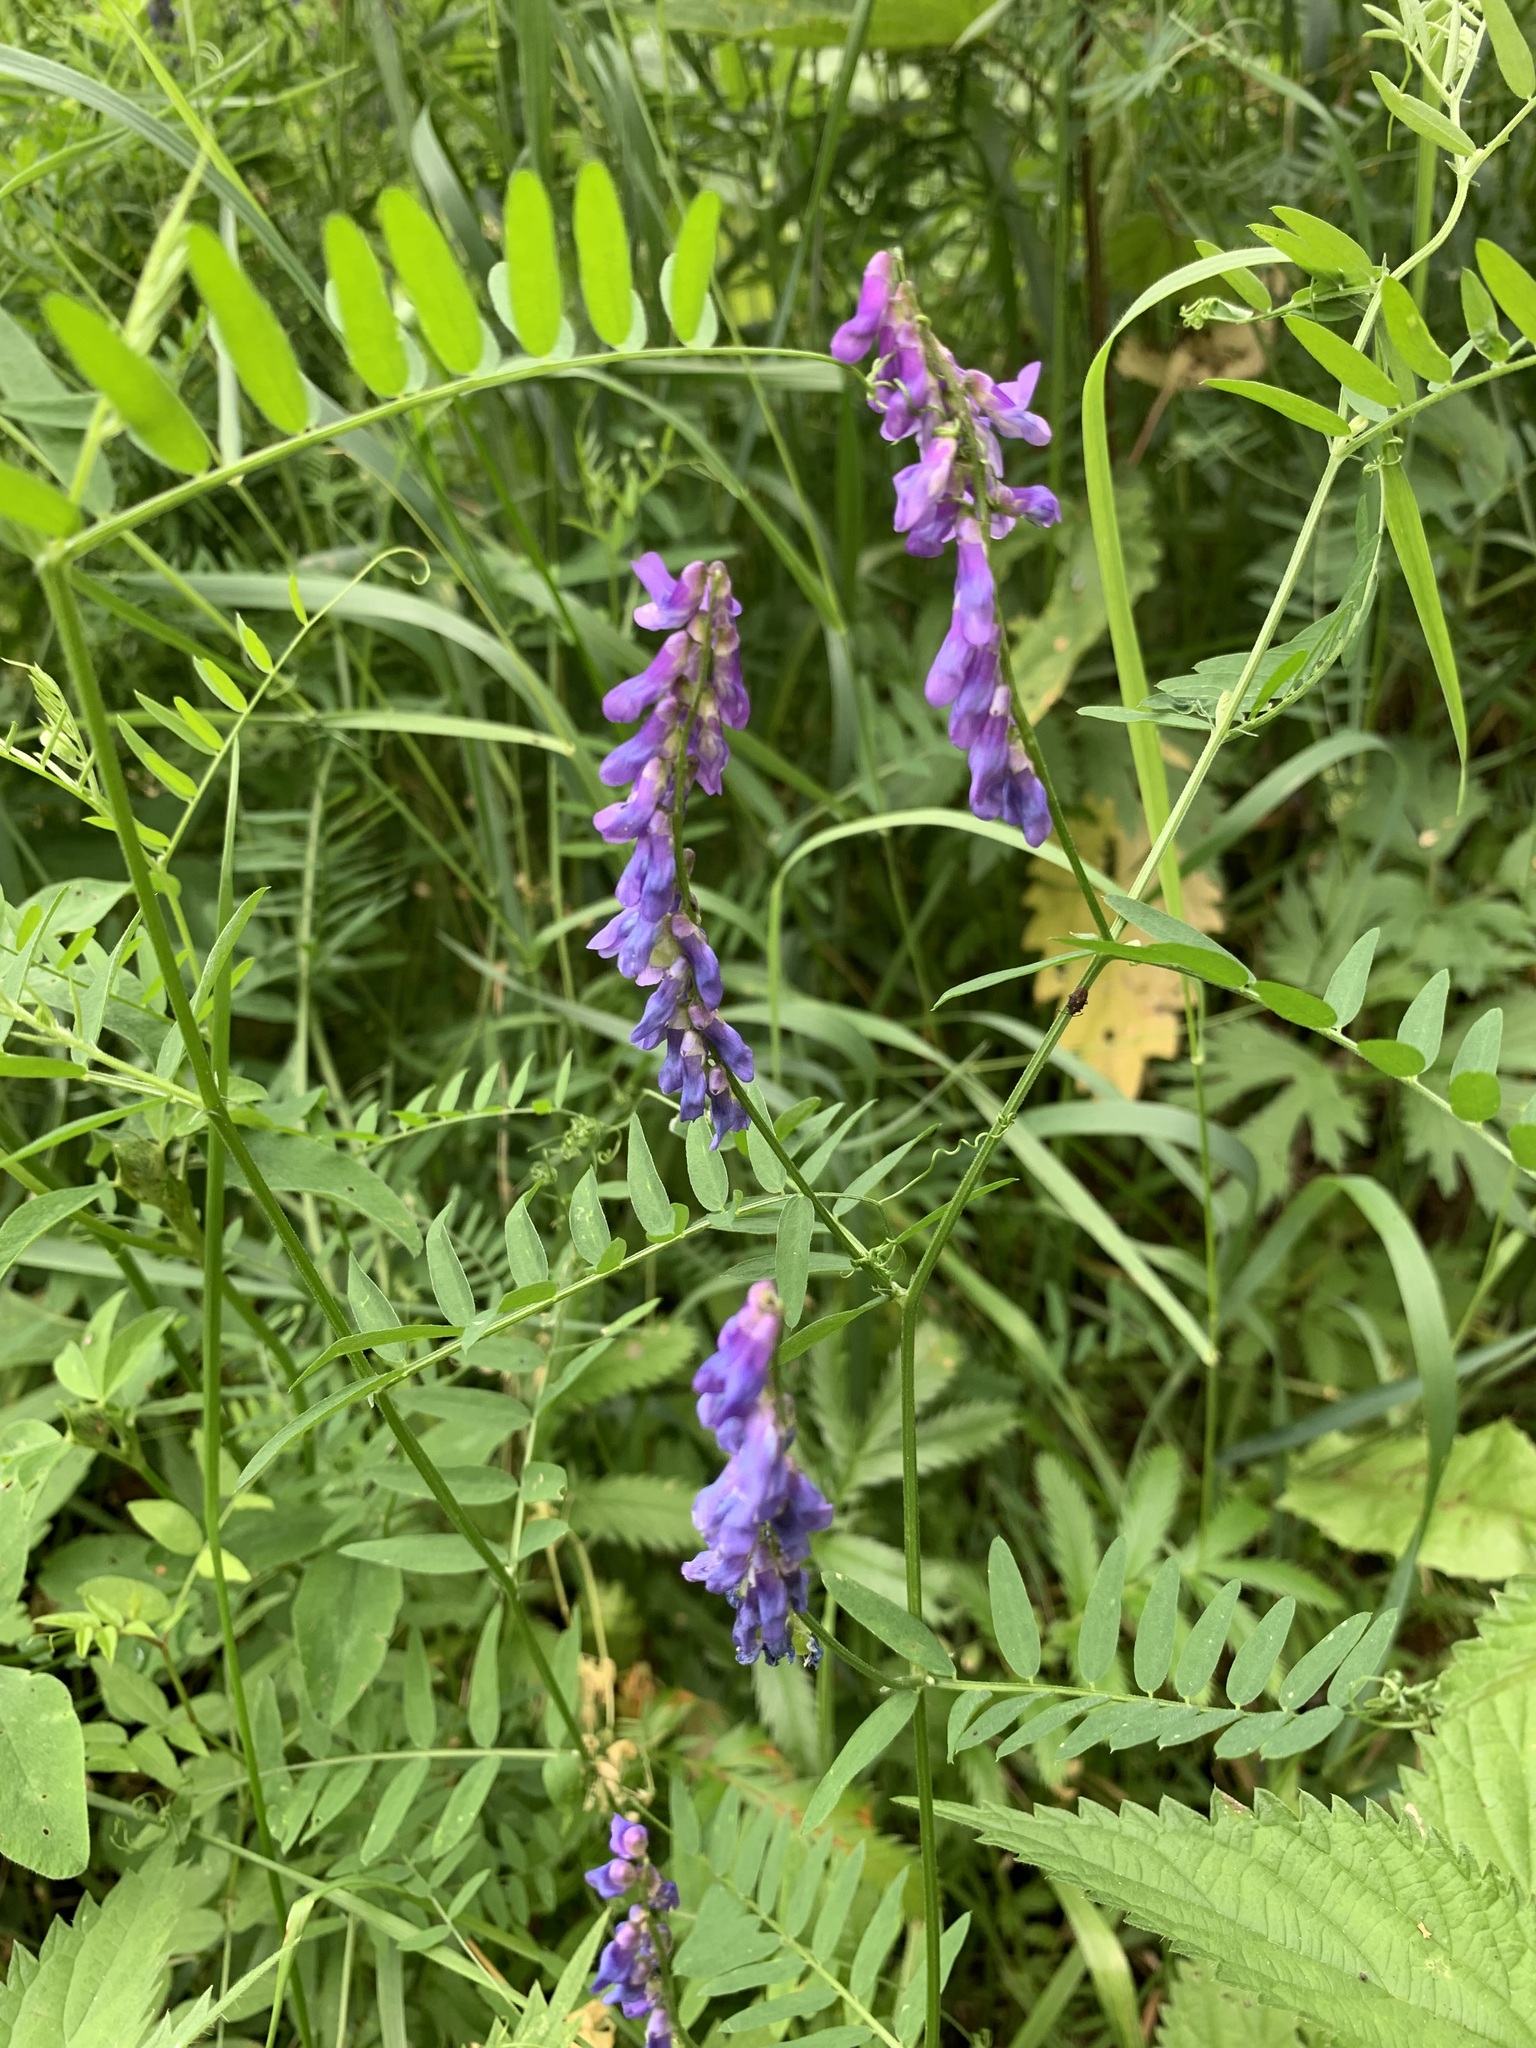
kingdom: Plantae
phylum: Tracheophyta
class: Magnoliopsida
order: Fabales
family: Fabaceae
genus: Vicia
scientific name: Vicia cracca
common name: Bird vetch
